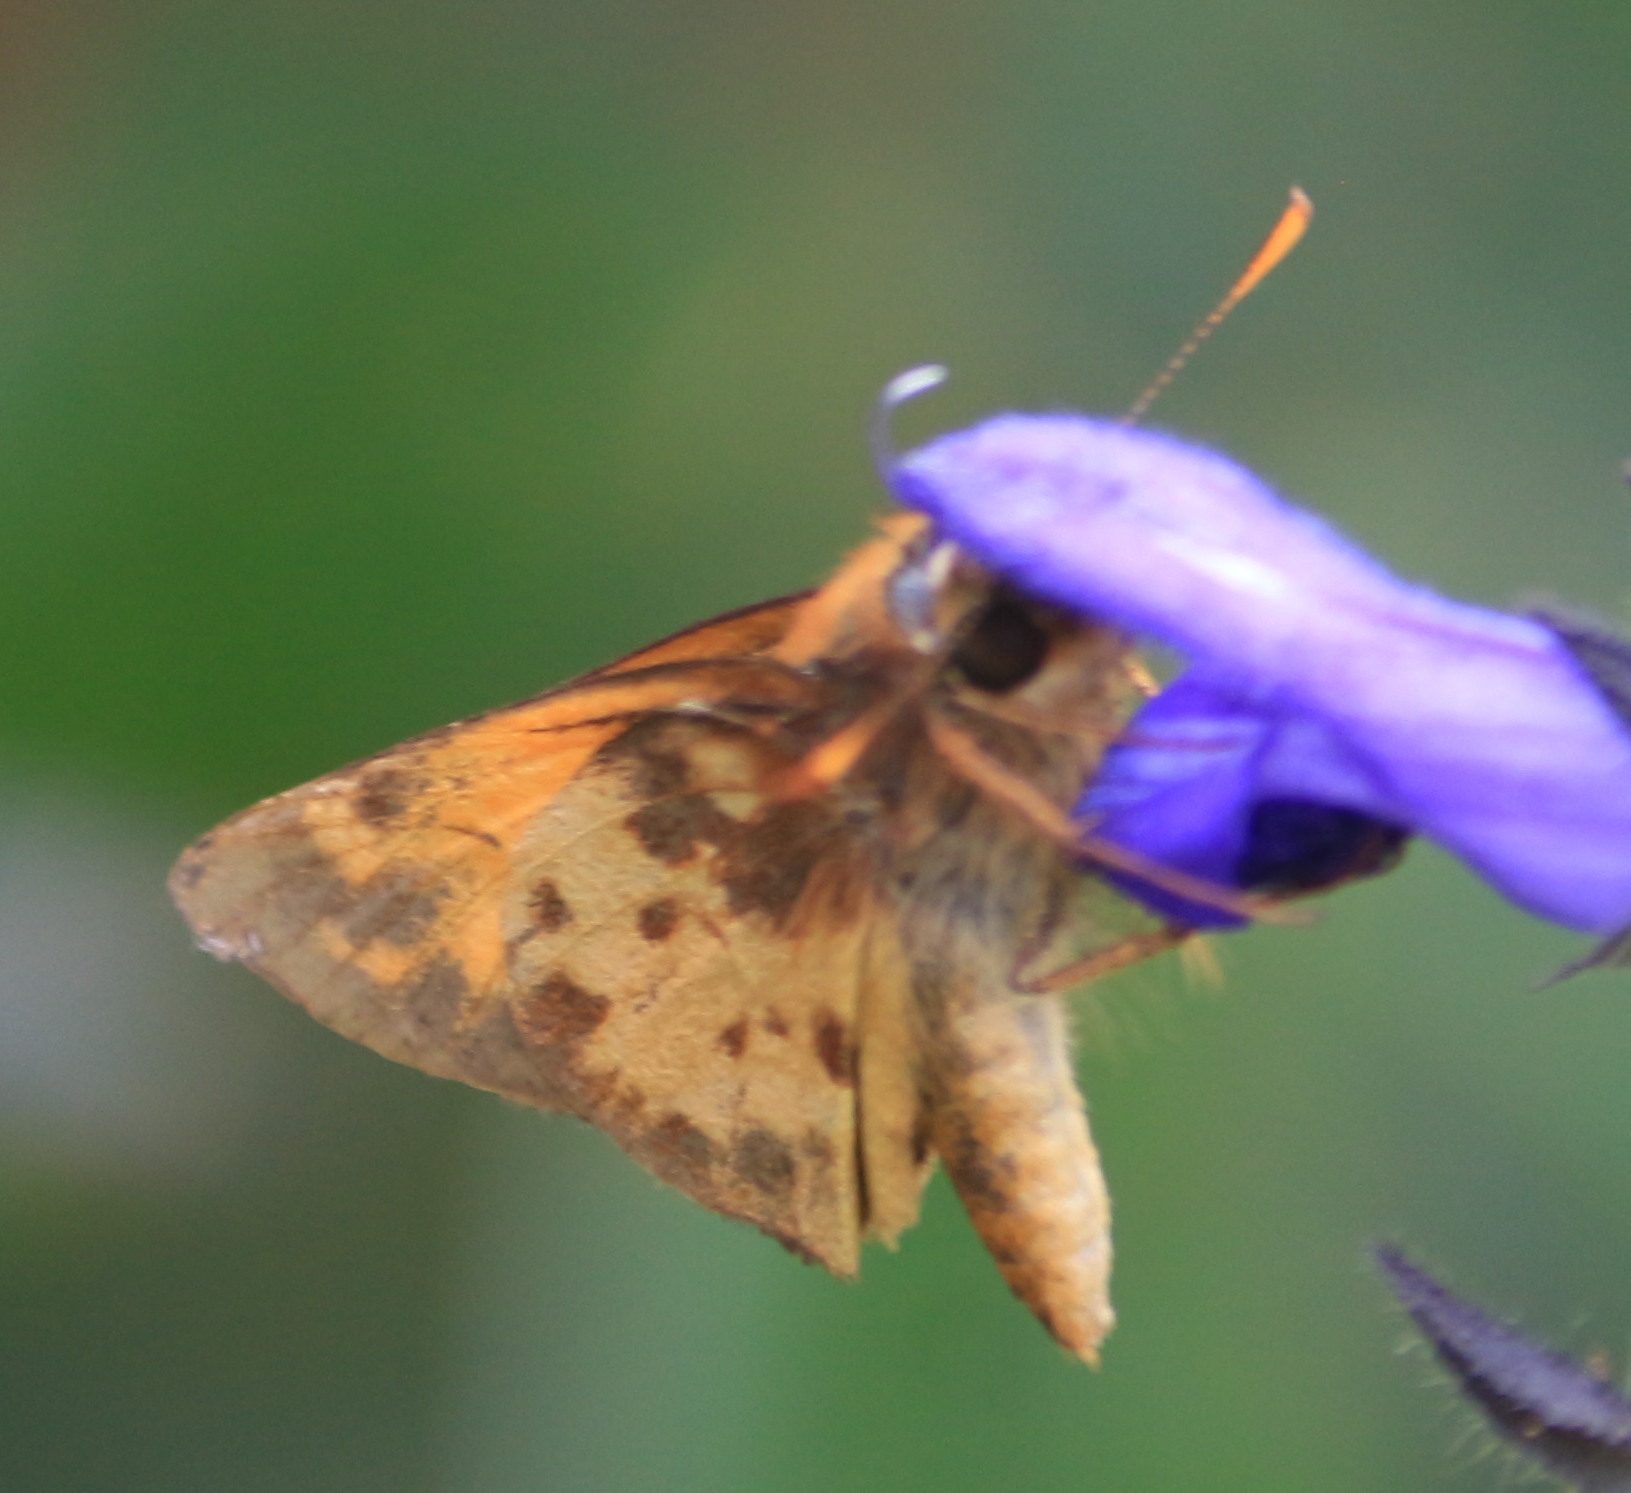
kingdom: Animalia
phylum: Arthropoda
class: Insecta
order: Lepidoptera
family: Hesperiidae
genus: Lon
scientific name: Lon zabulon
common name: Zabulon skipper
